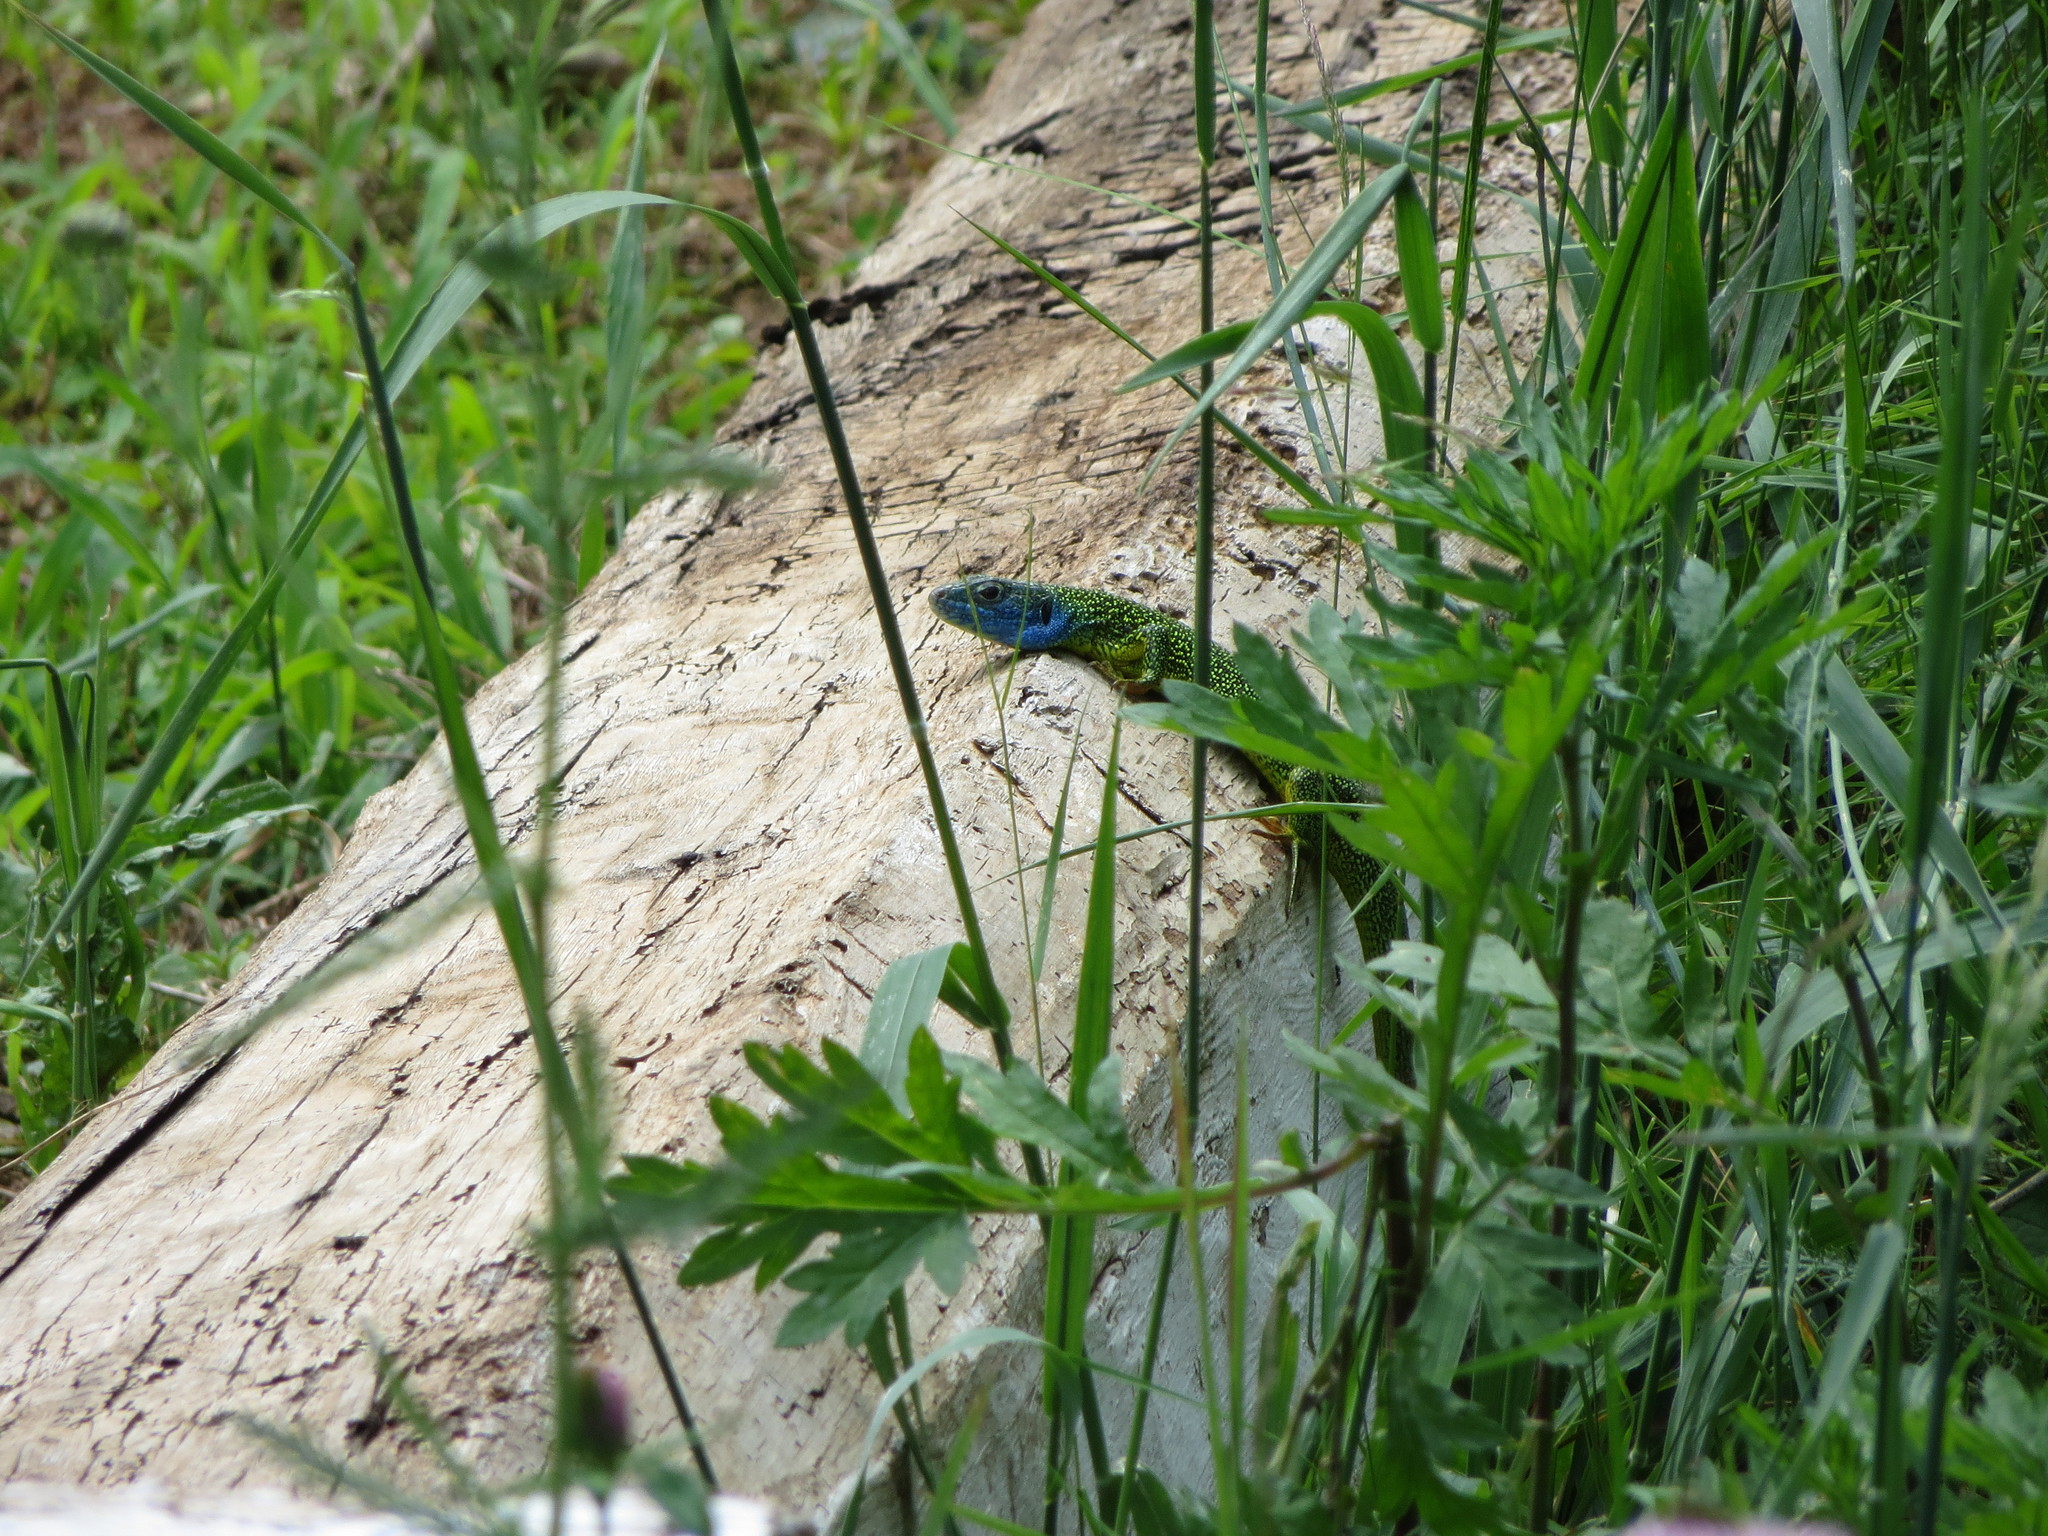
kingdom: Animalia
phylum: Chordata
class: Squamata
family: Lacertidae
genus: Lacerta
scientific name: Lacerta bilineata
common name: Western green lizard
